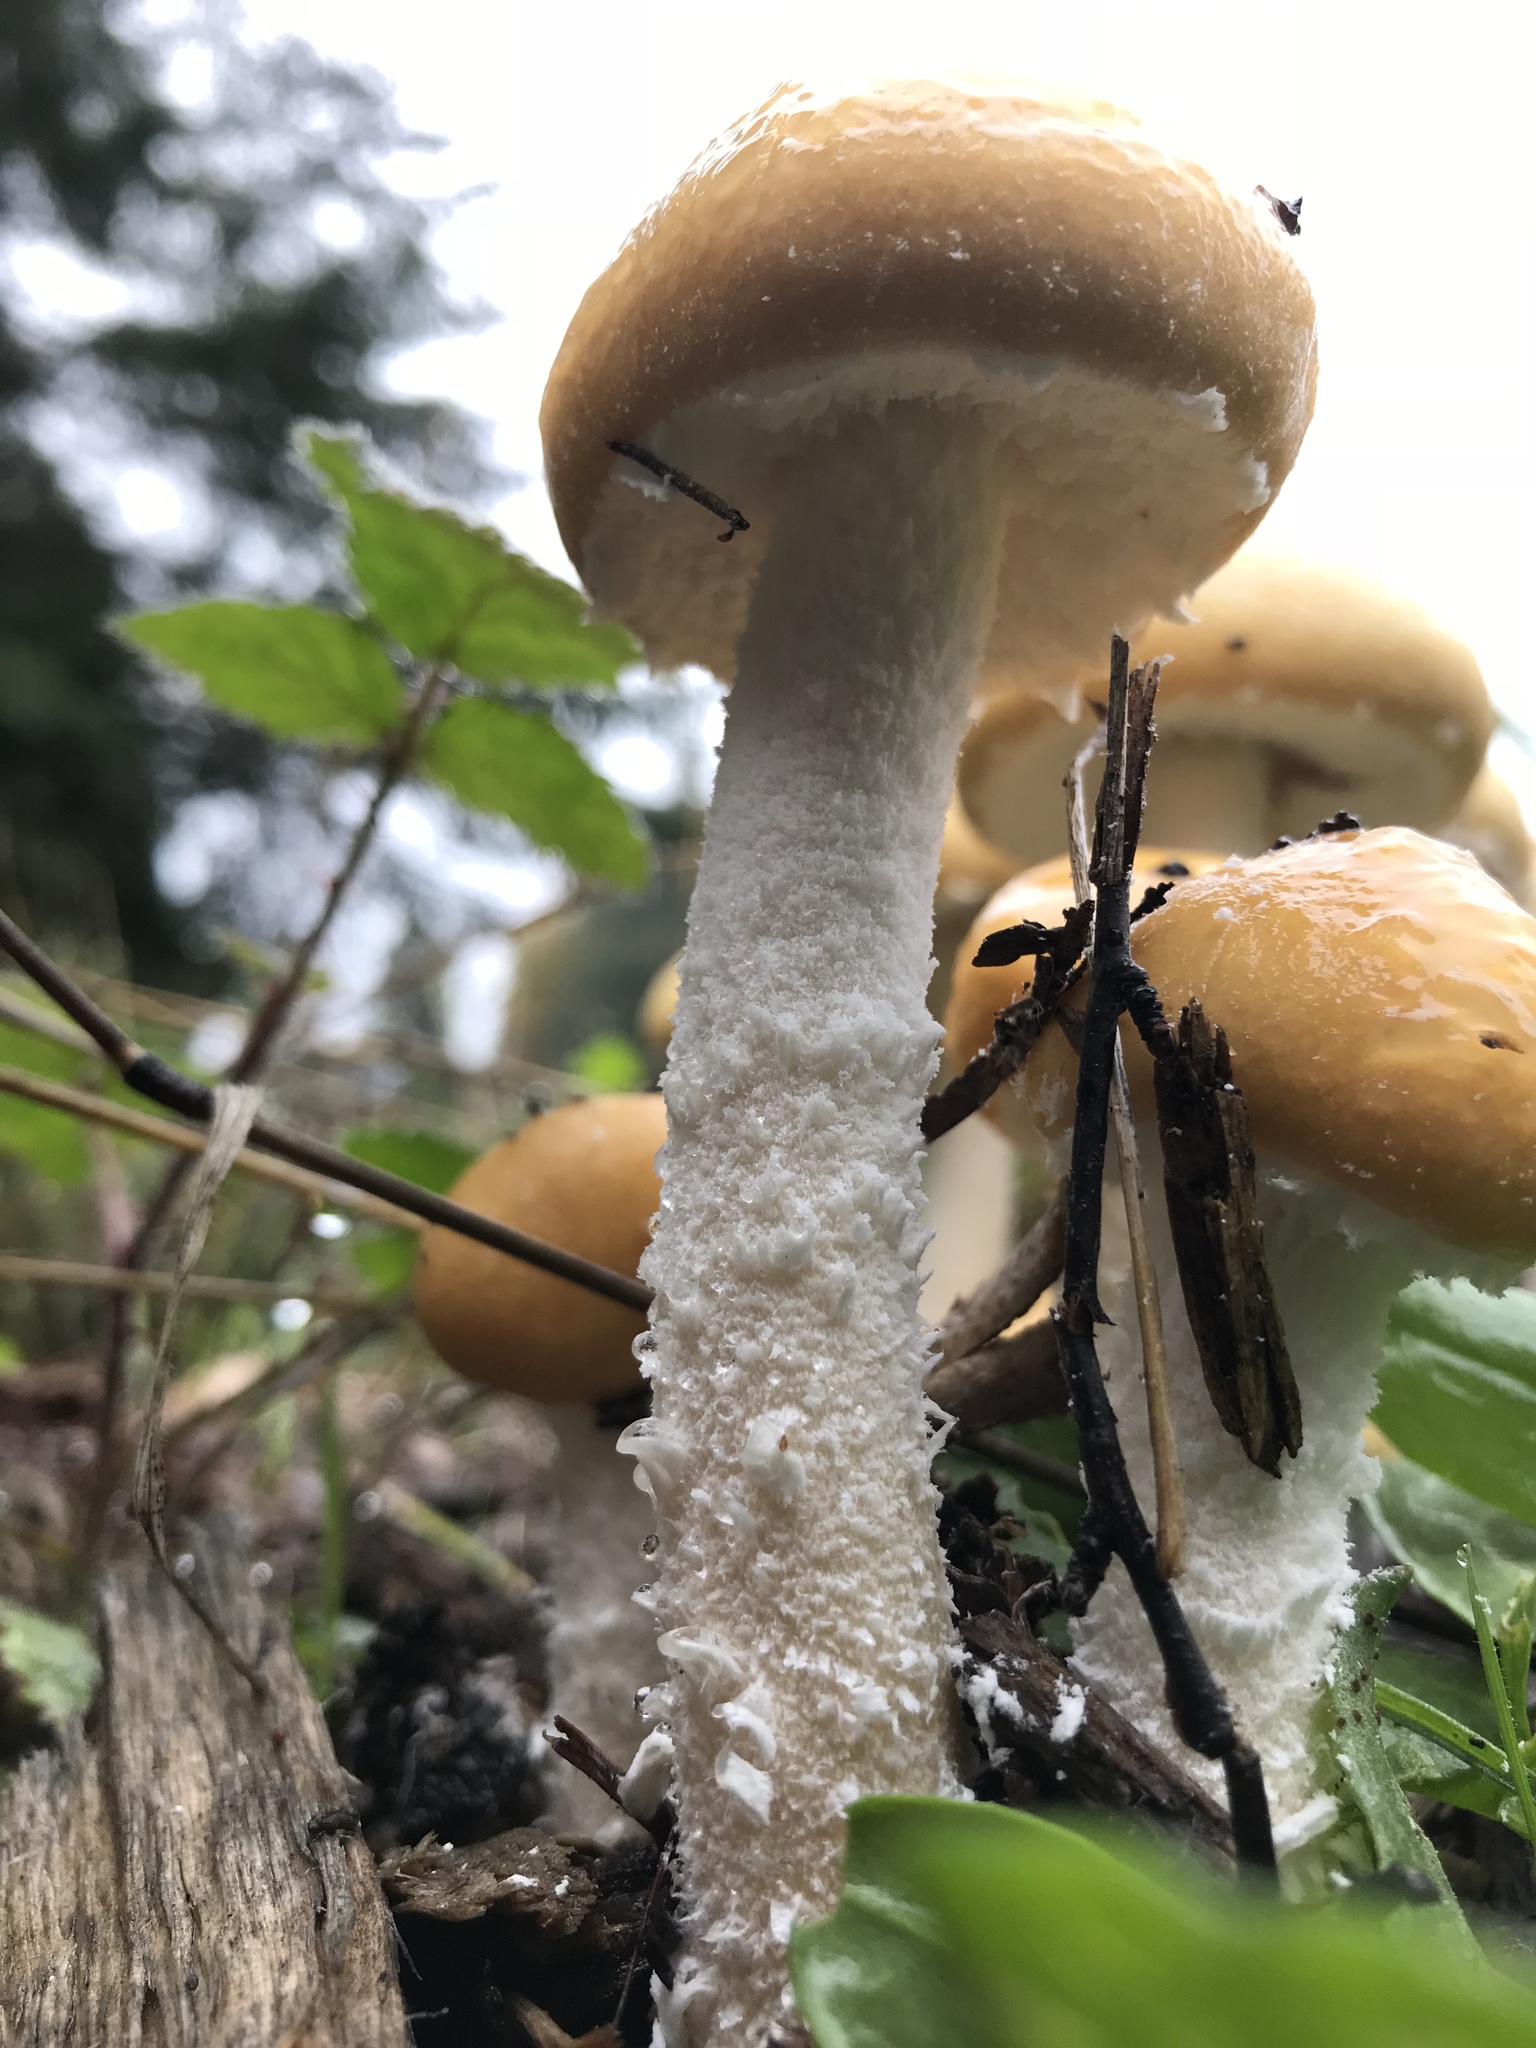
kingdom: Fungi
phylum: Basidiomycota
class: Agaricomycetes
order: Agaricales
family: Strophariaceae
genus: Stropharia
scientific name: Stropharia ambigua
